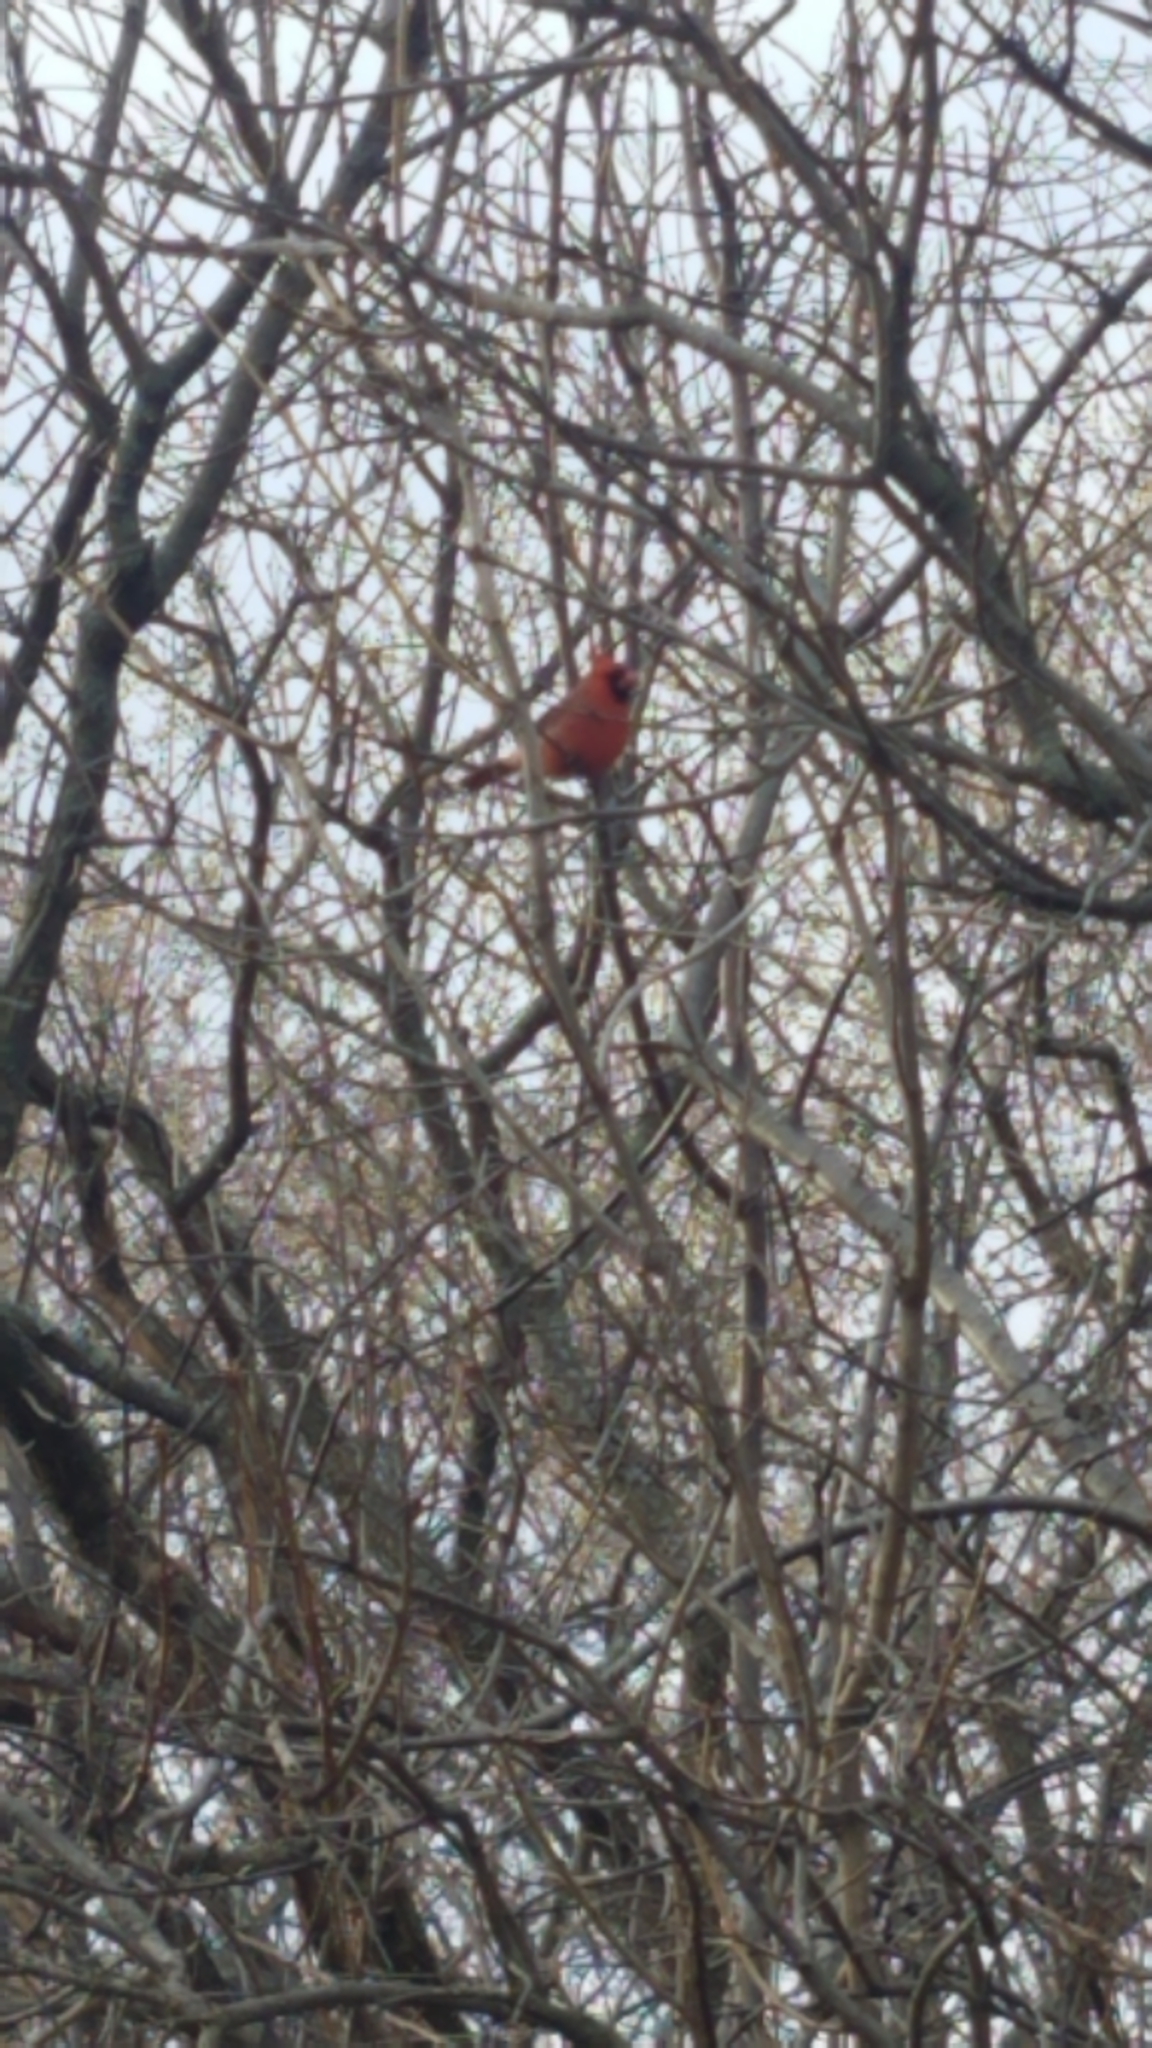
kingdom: Animalia
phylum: Chordata
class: Aves
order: Passeriformes
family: Cardinalidae
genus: Cardinalis
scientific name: Cardinalis cardinalis
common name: Northern cardinal
